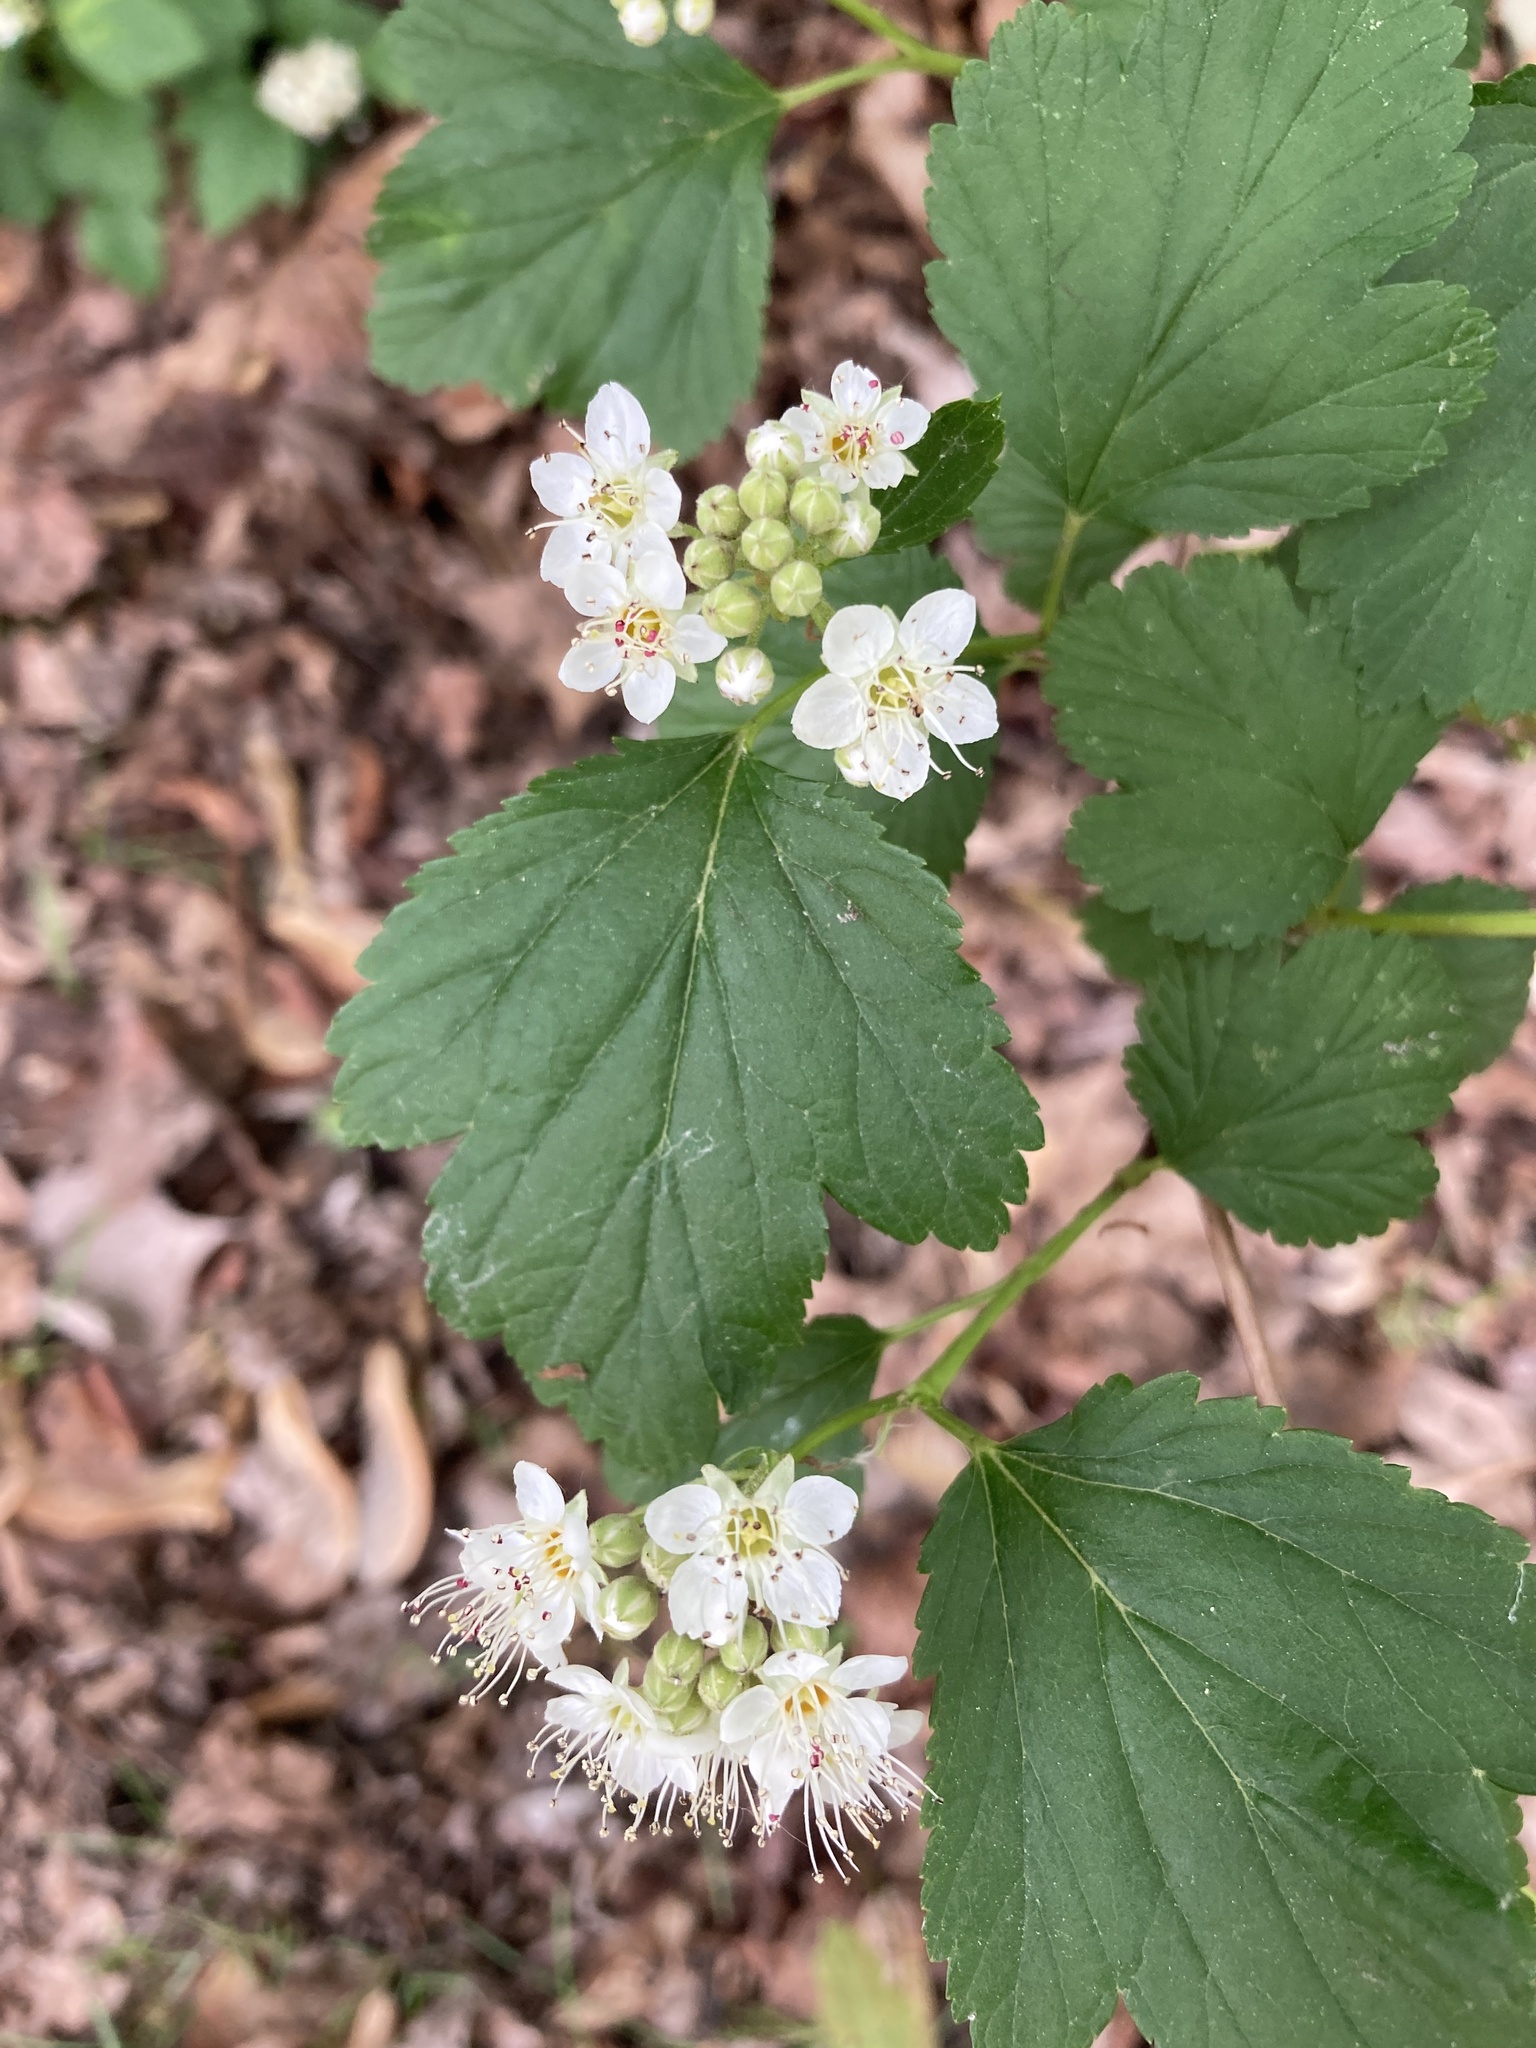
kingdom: Plantae
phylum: Tracheophyta
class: Magnoliopsida
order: Rosales
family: Rosaceae
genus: Physocarpus
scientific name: Physocarpus opulifolius
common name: Ninebark
